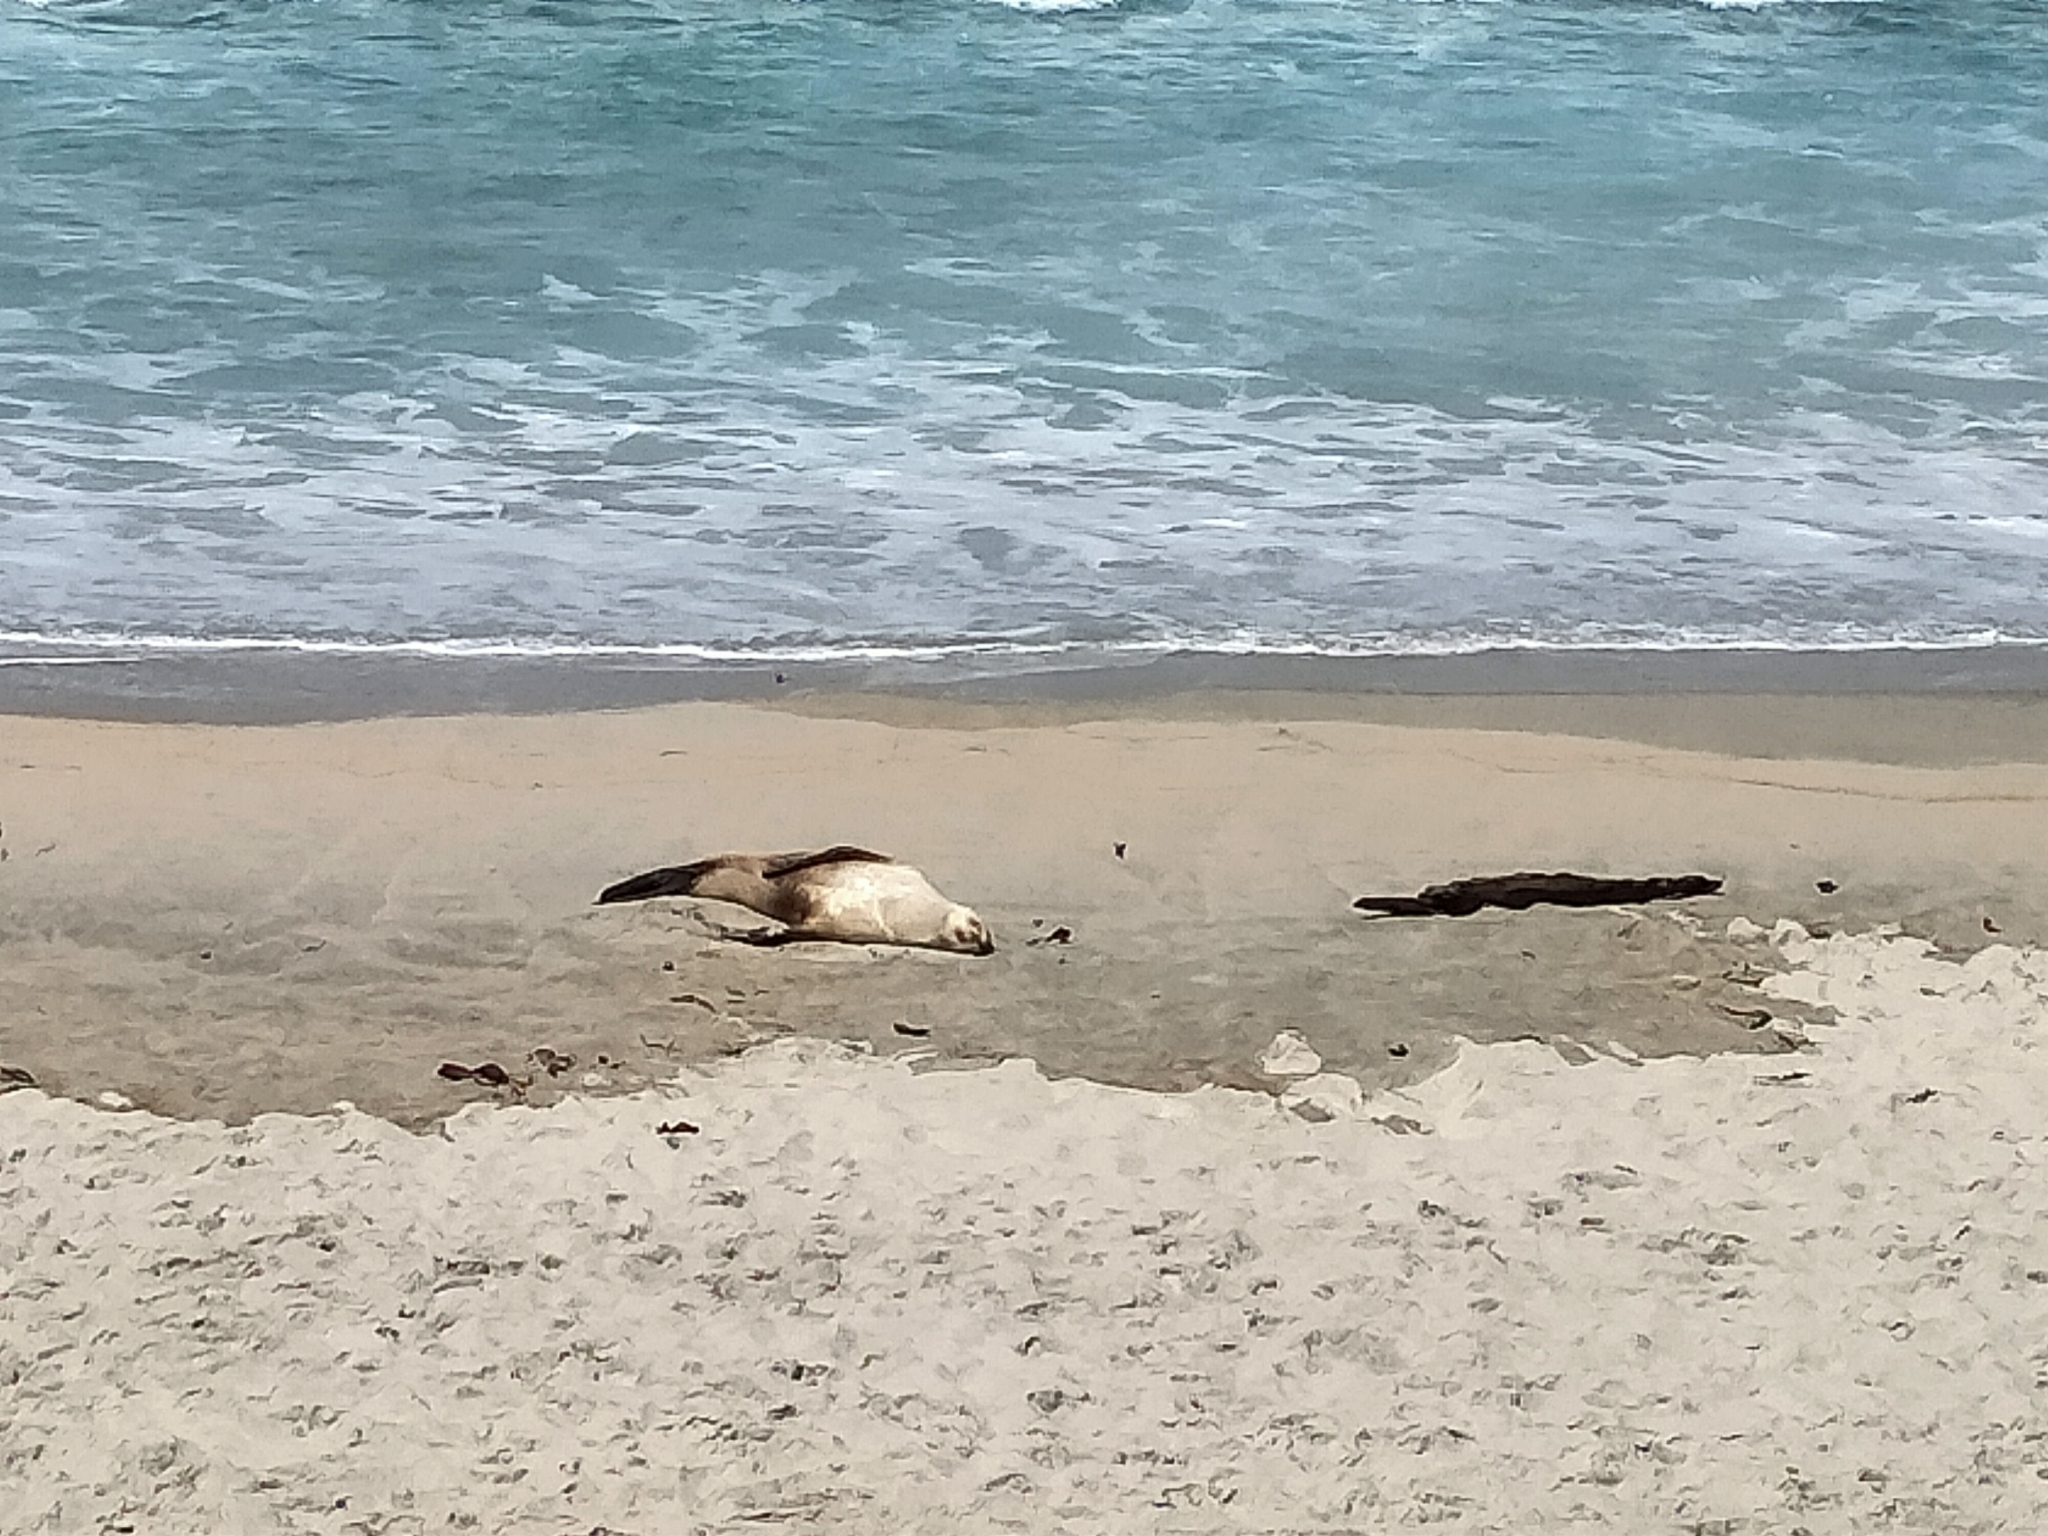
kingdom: Animalia
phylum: Chordata
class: Mammalia
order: Carnivora
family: Otariidae
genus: Phocarctos
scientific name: Phocarctos hookeri
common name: New zealand sea lion
